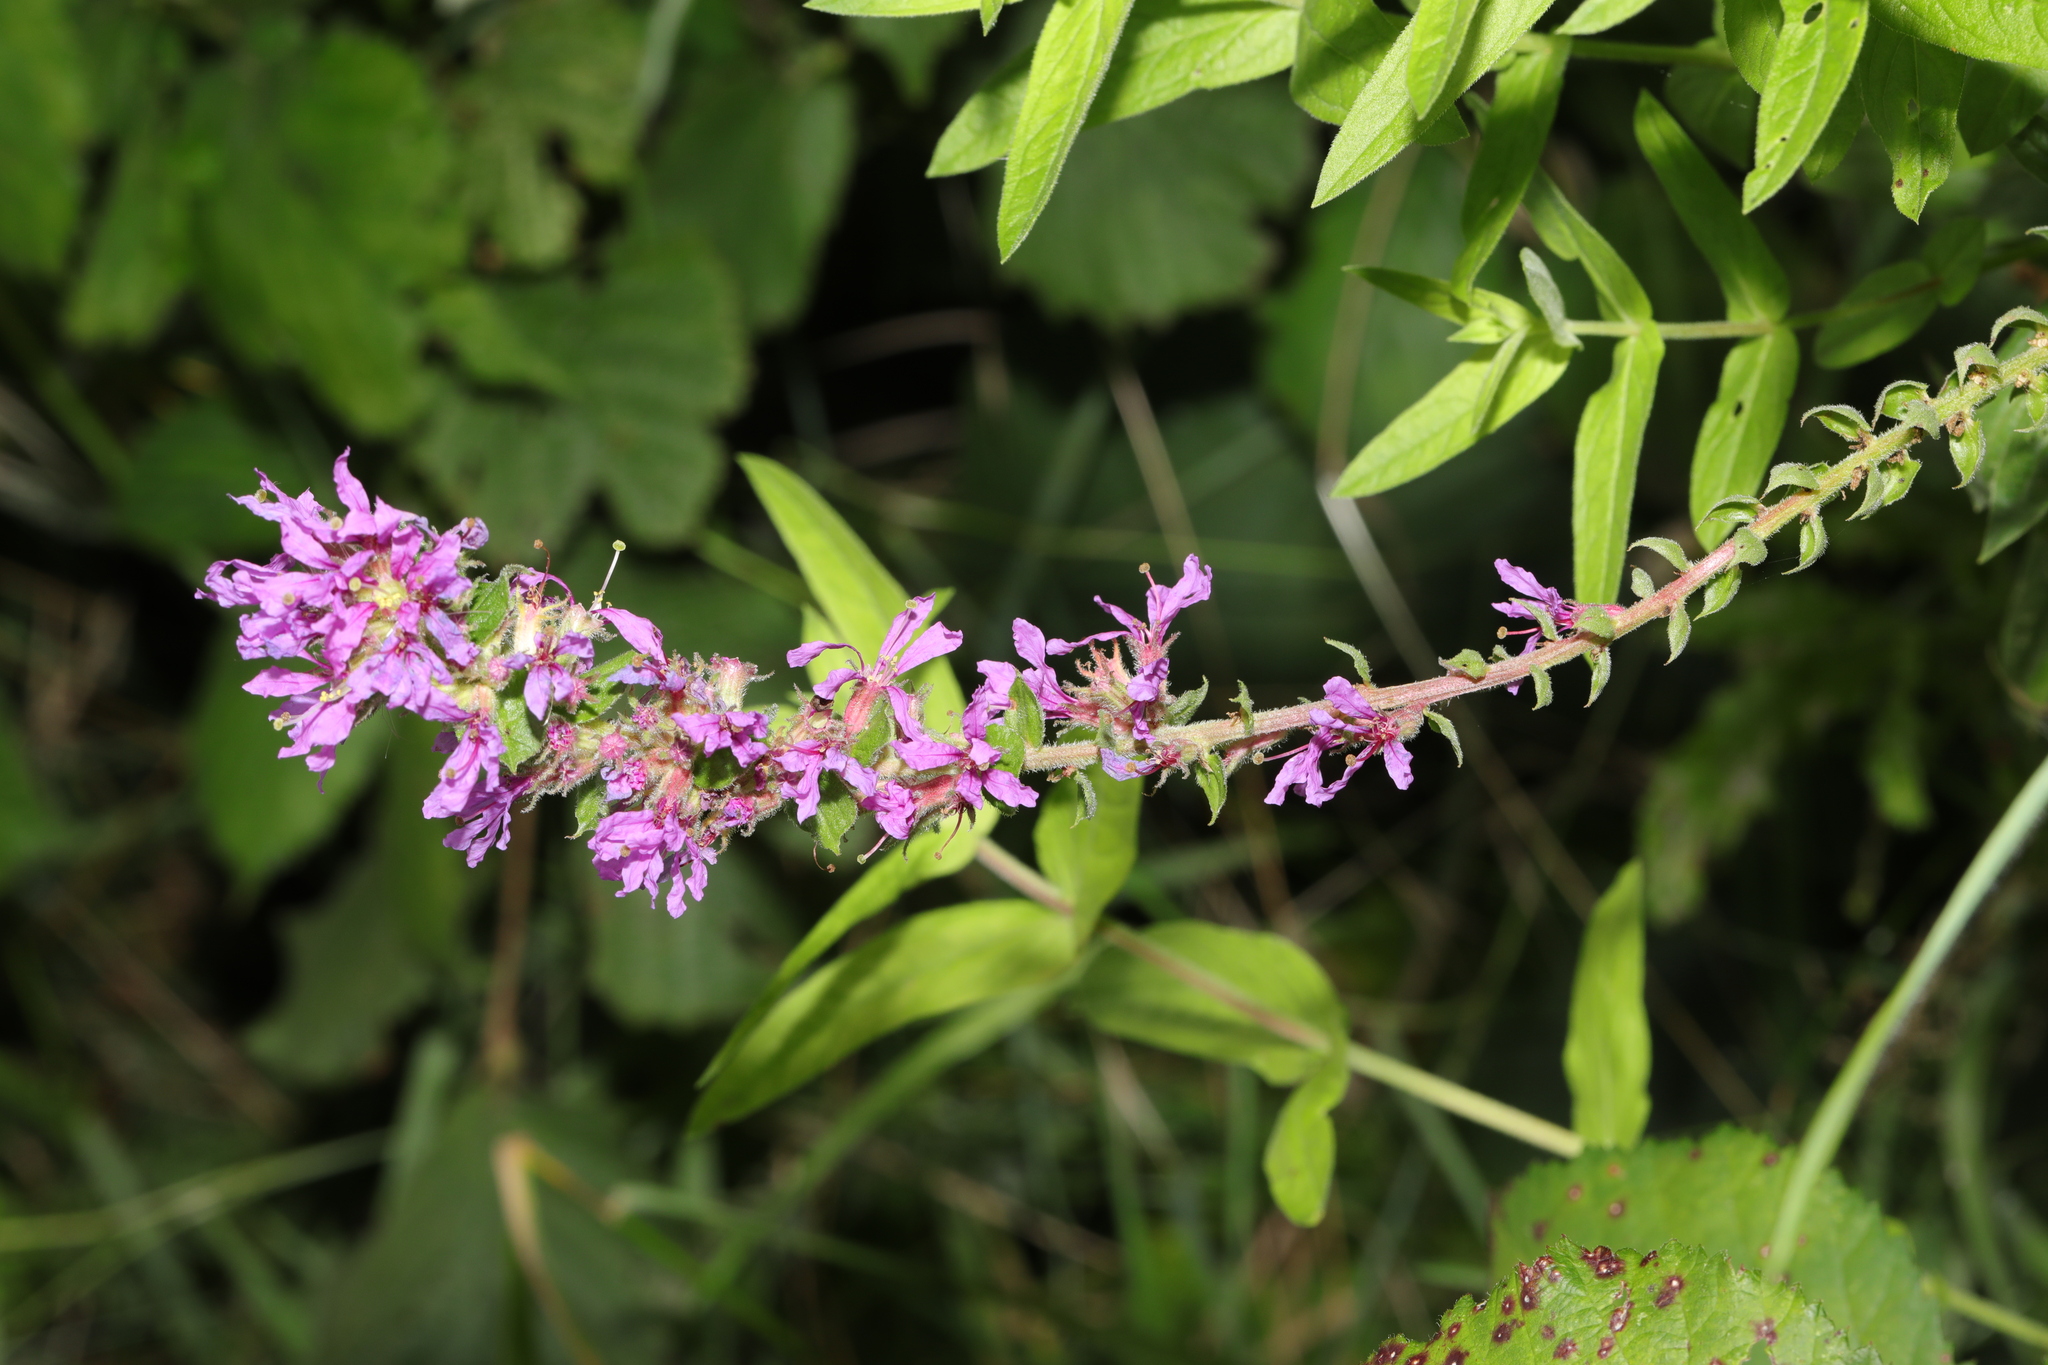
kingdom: Plantae
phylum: Tracheophyta
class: Magnoliopsida
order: Myrtales
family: Lythraceae
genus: Lythrum
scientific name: Lythrum salicaria
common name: Purple loosestrife
